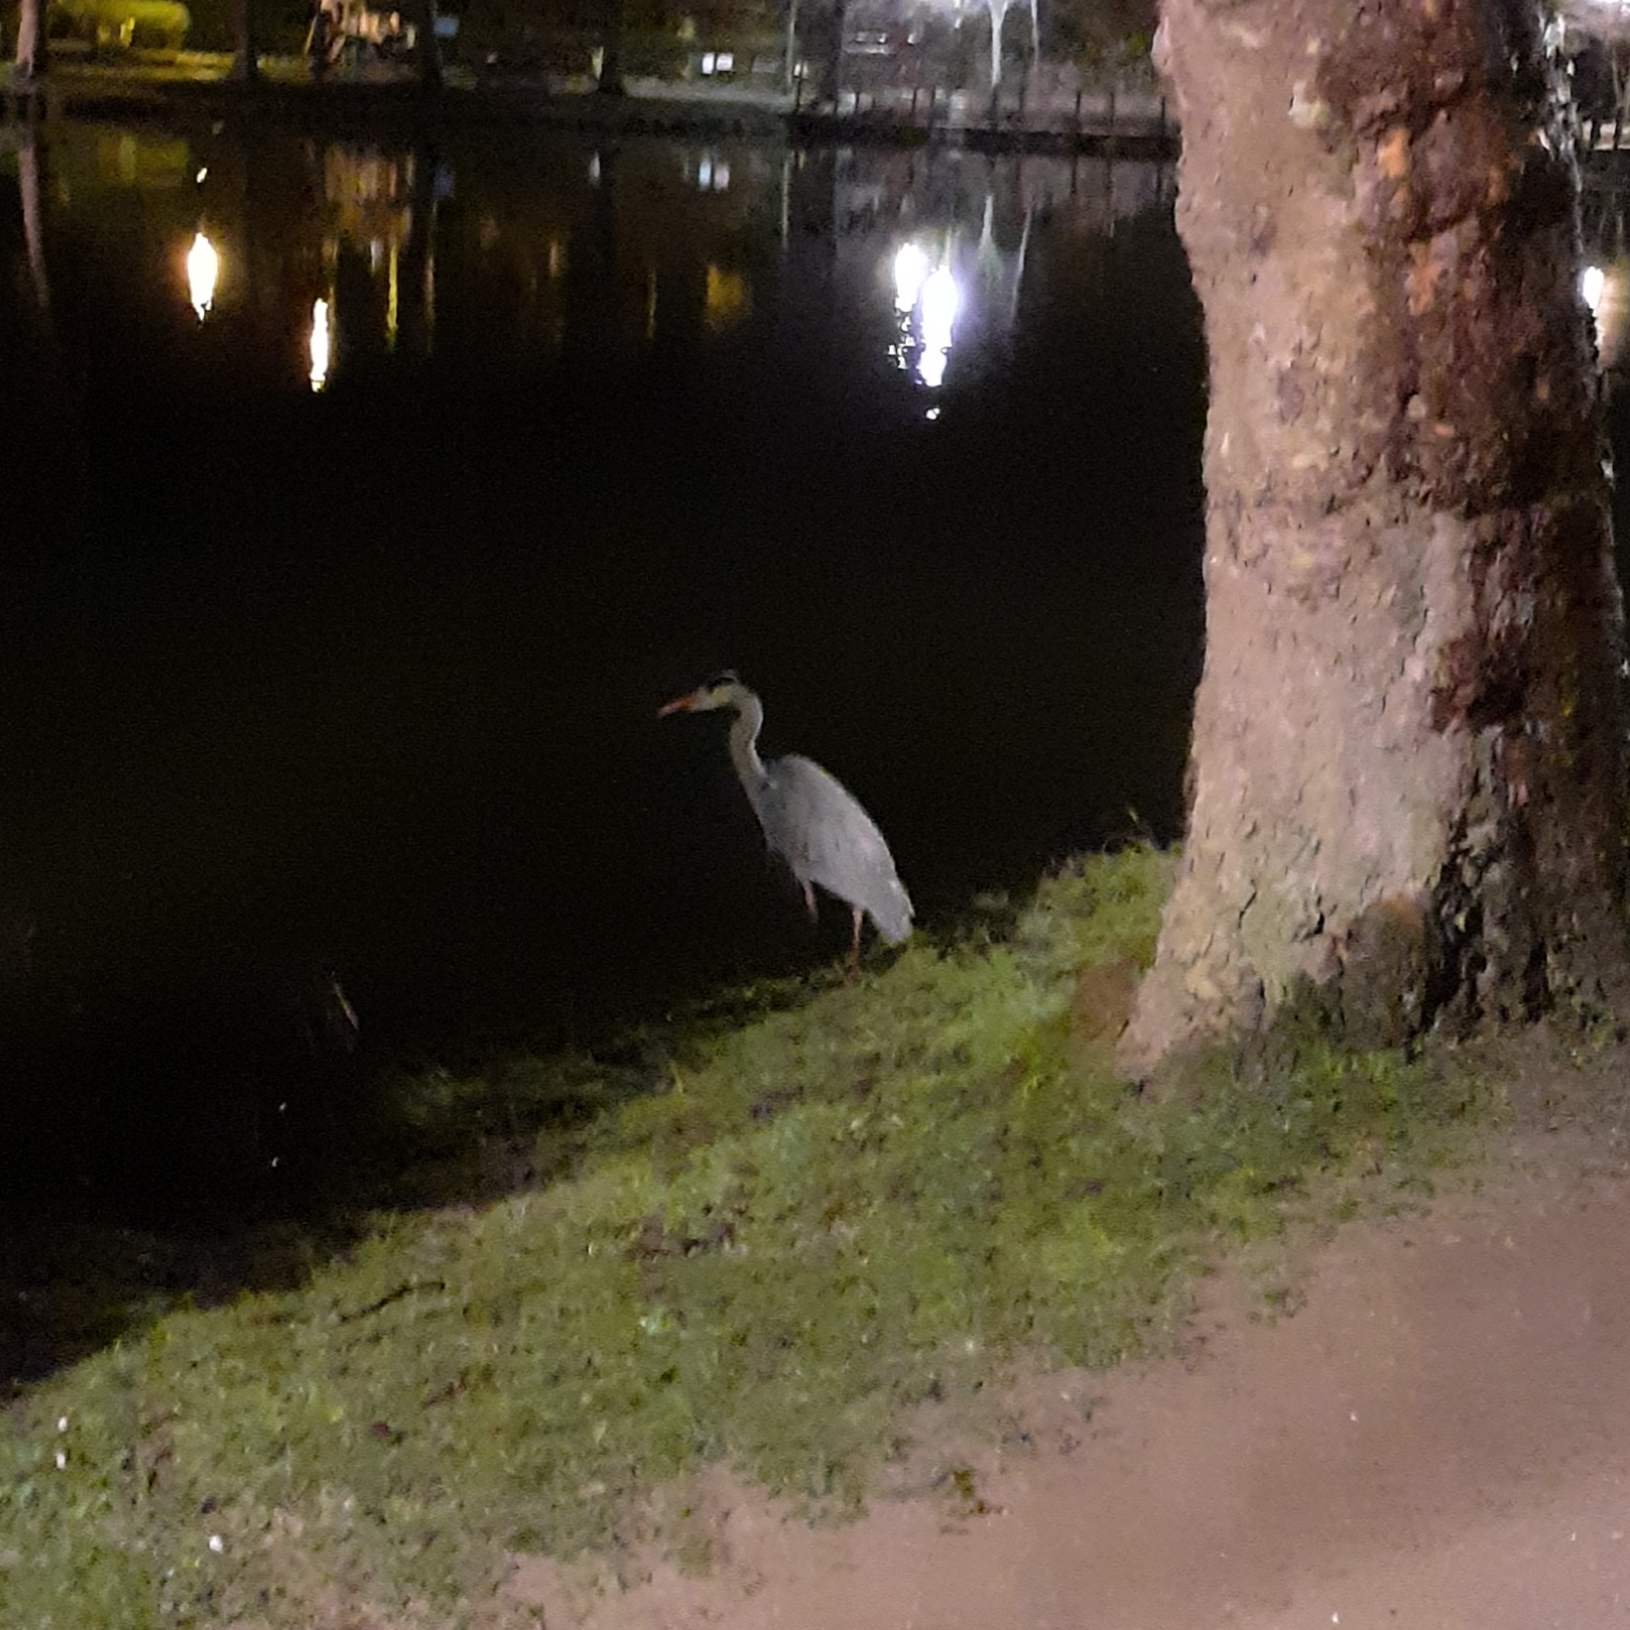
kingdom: Animalia
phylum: Chordata
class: Aves
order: Pelecaniformes
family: Ardeidae
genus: Ardea
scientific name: Ardea cinerea
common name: Grey heron
